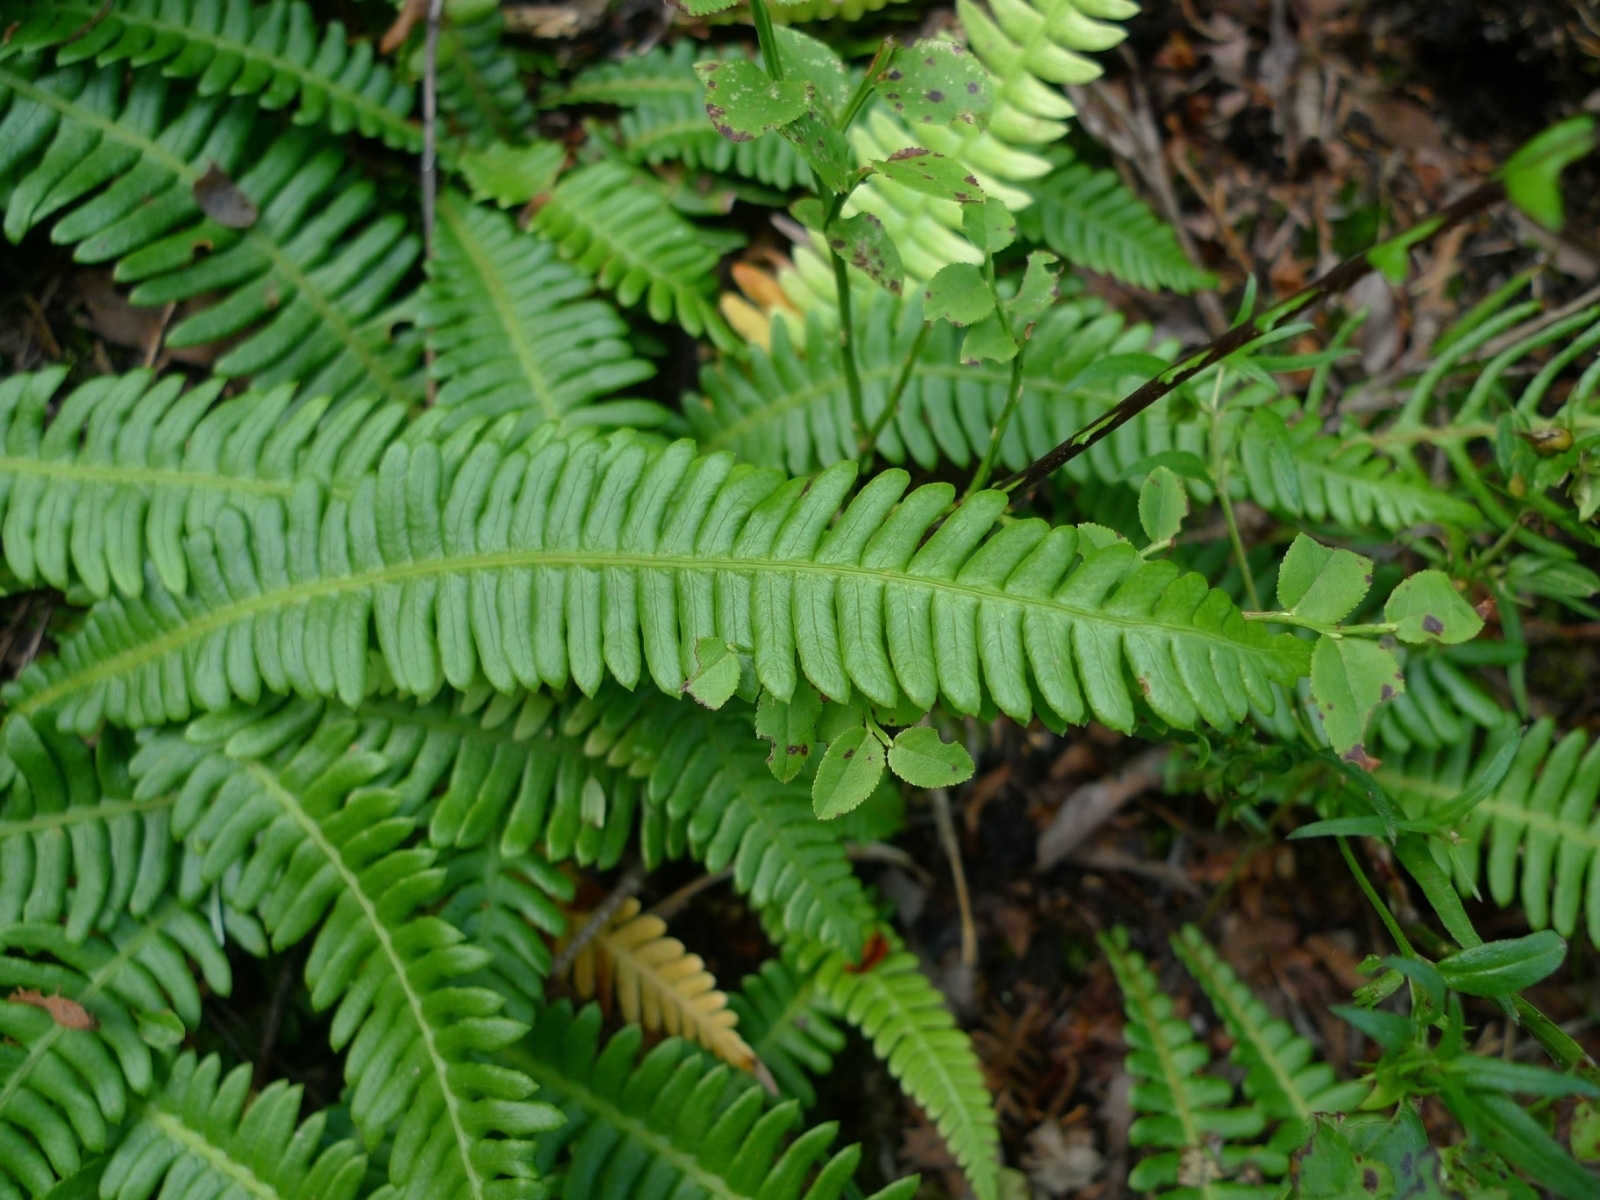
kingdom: Plantae
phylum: Tracheophyta
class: Polypodiopsida
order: Polypodiales
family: Blechnaceae
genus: Struthiopteris
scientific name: Struthiopteris spicant
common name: Deer fern
